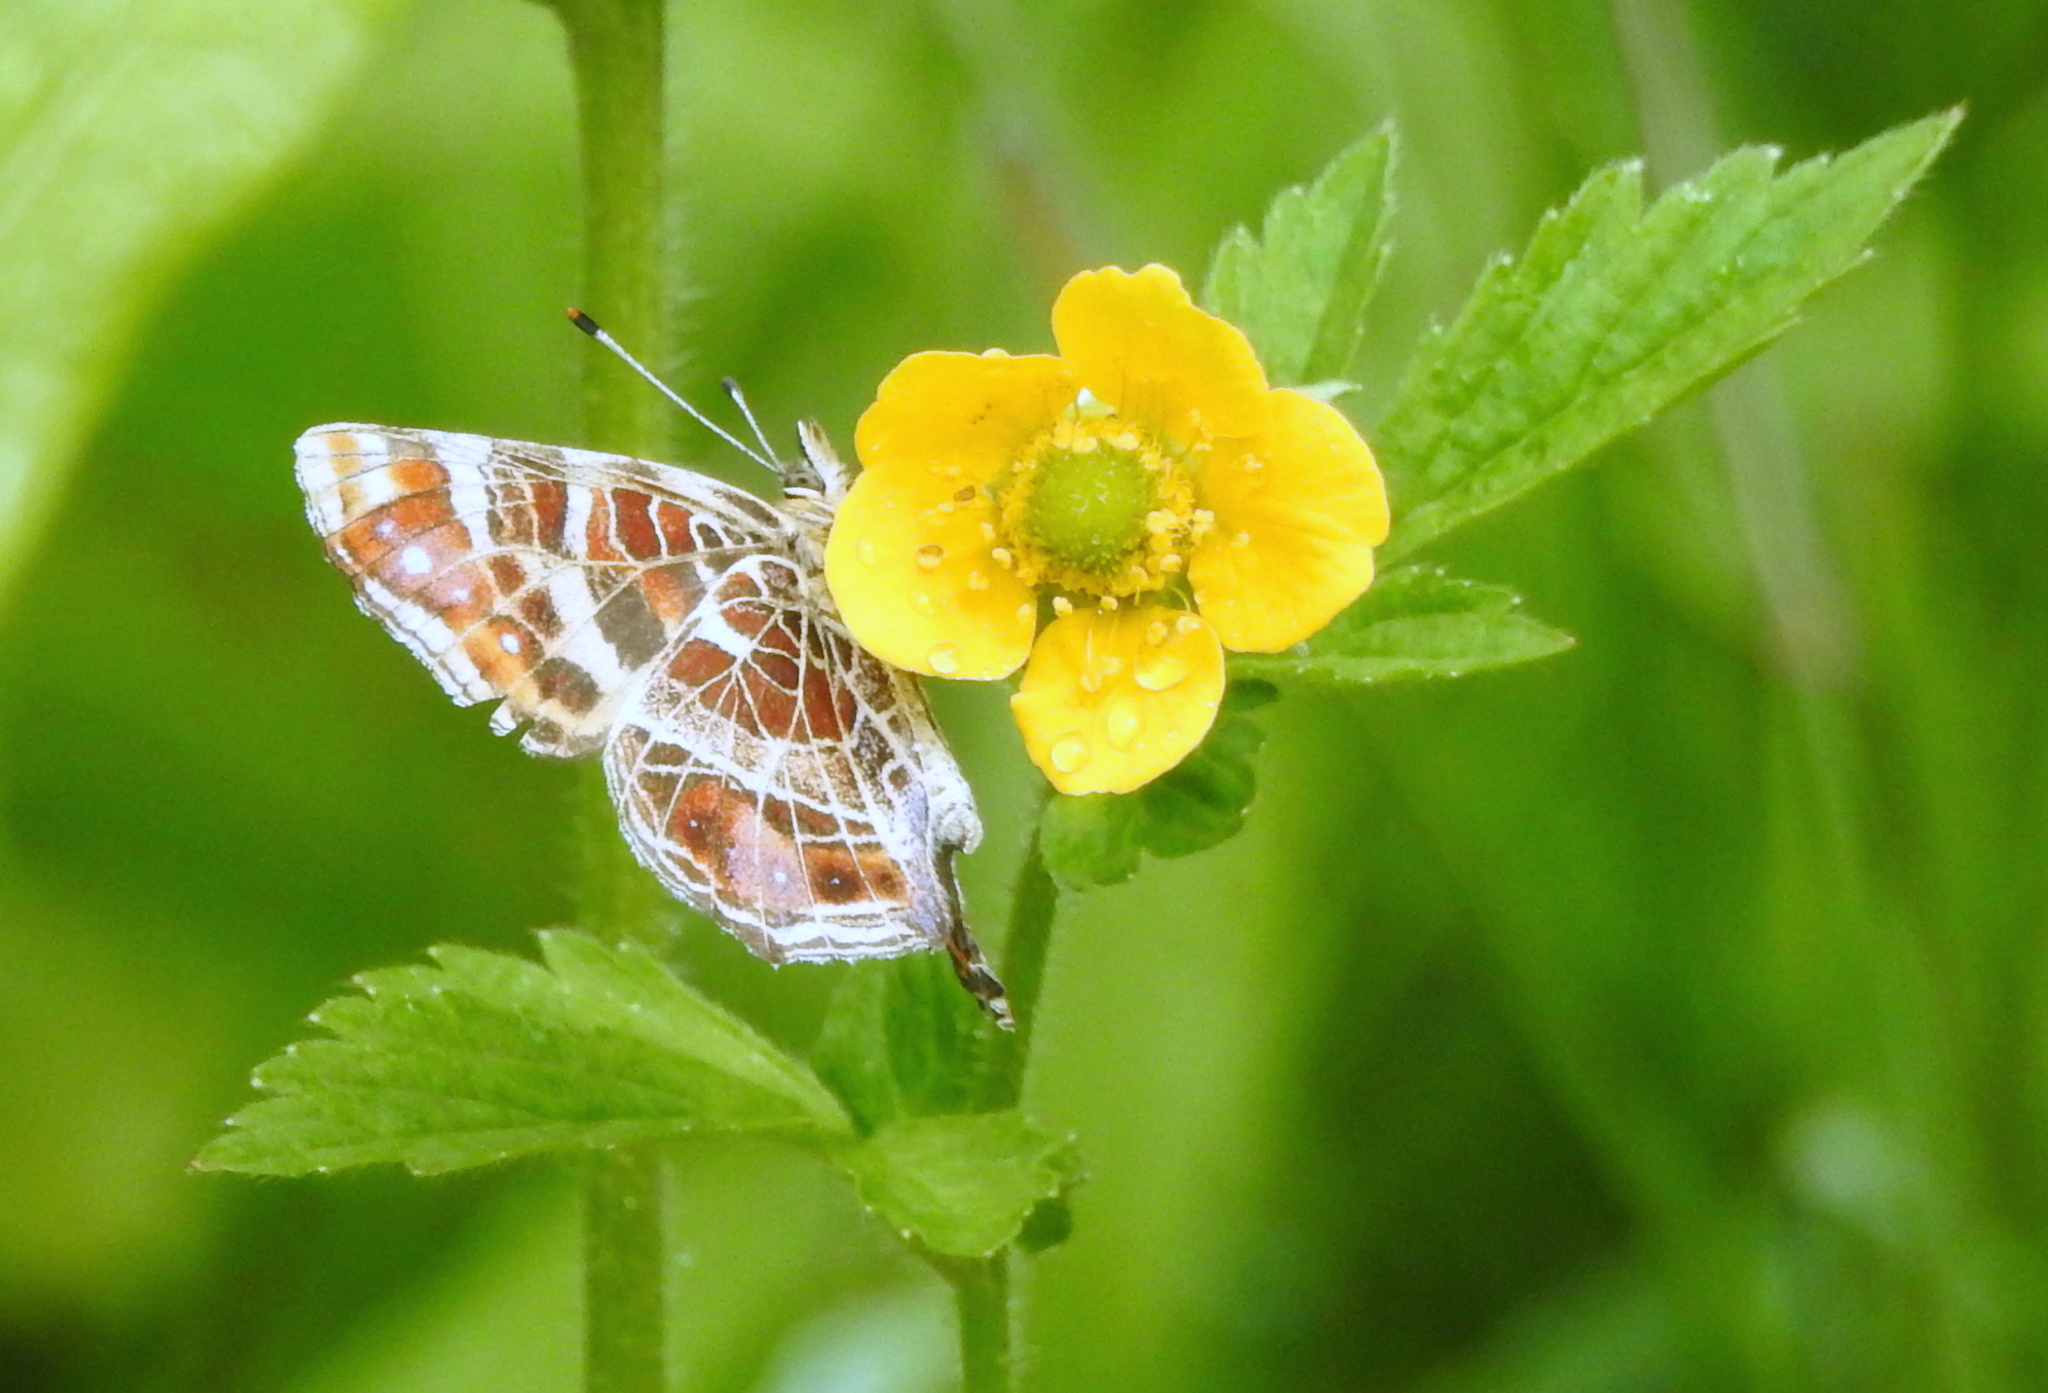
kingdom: Animalia
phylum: Arthropoda
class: Insecta
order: Lepidoptera
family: Nymphalidae
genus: Araschnia
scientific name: Araschnia levana
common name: Map butterfly
